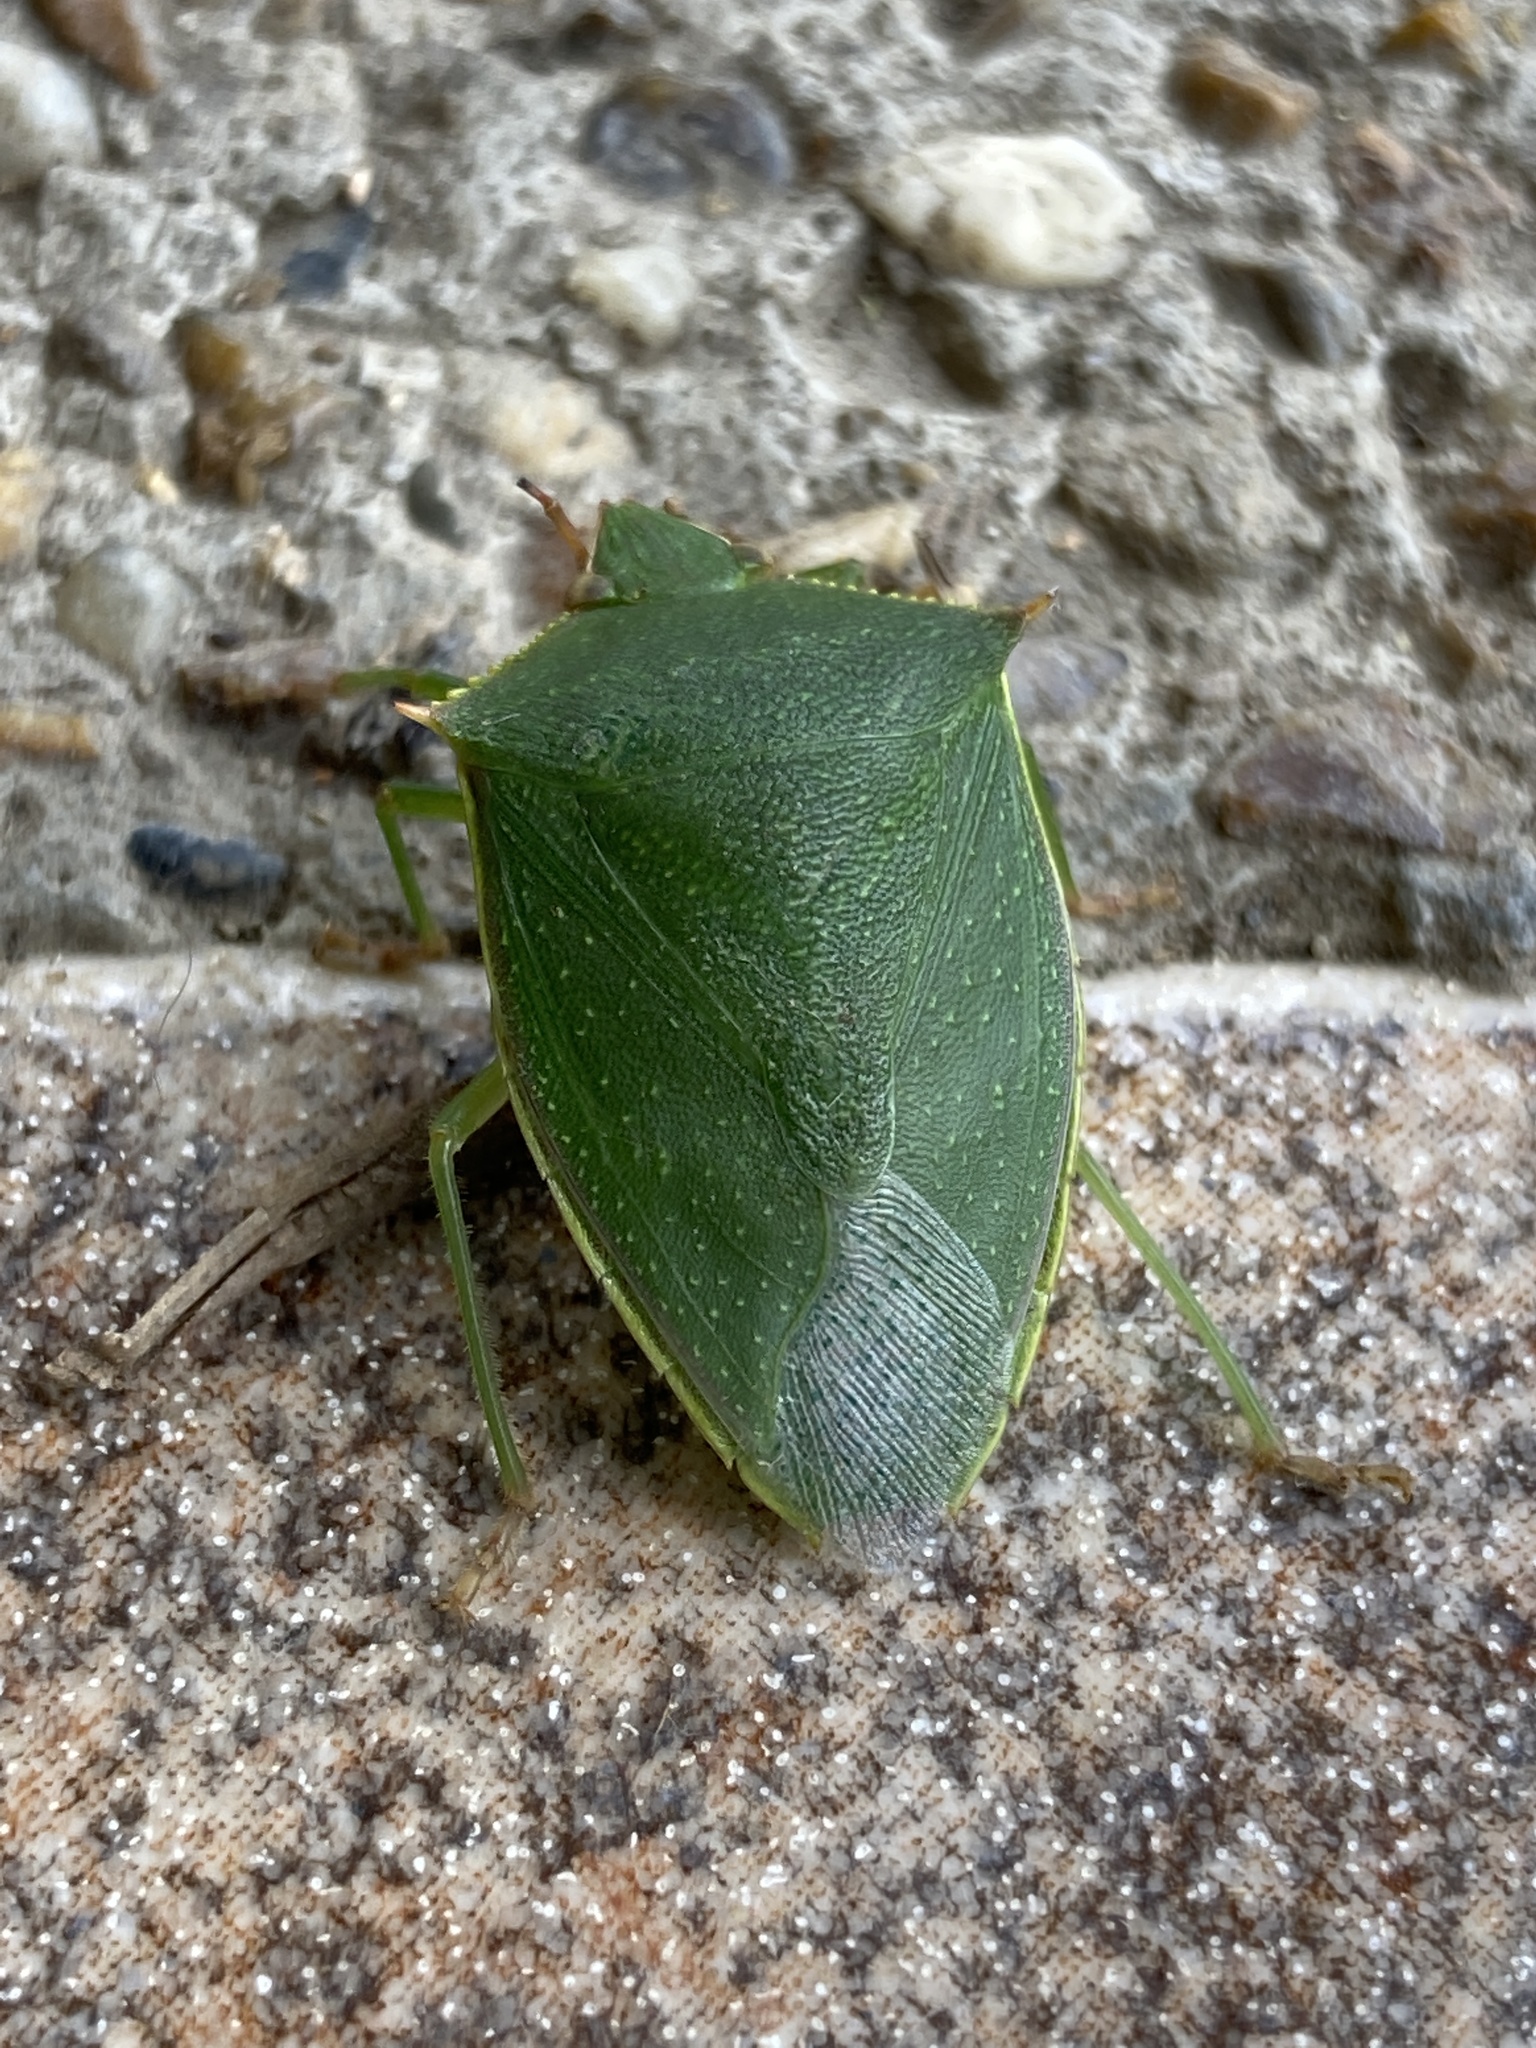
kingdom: Animalia
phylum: Arthropoda
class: Insecta
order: Hemiptera
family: Pentatomidae
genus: Loxa
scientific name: Loxa virescens
